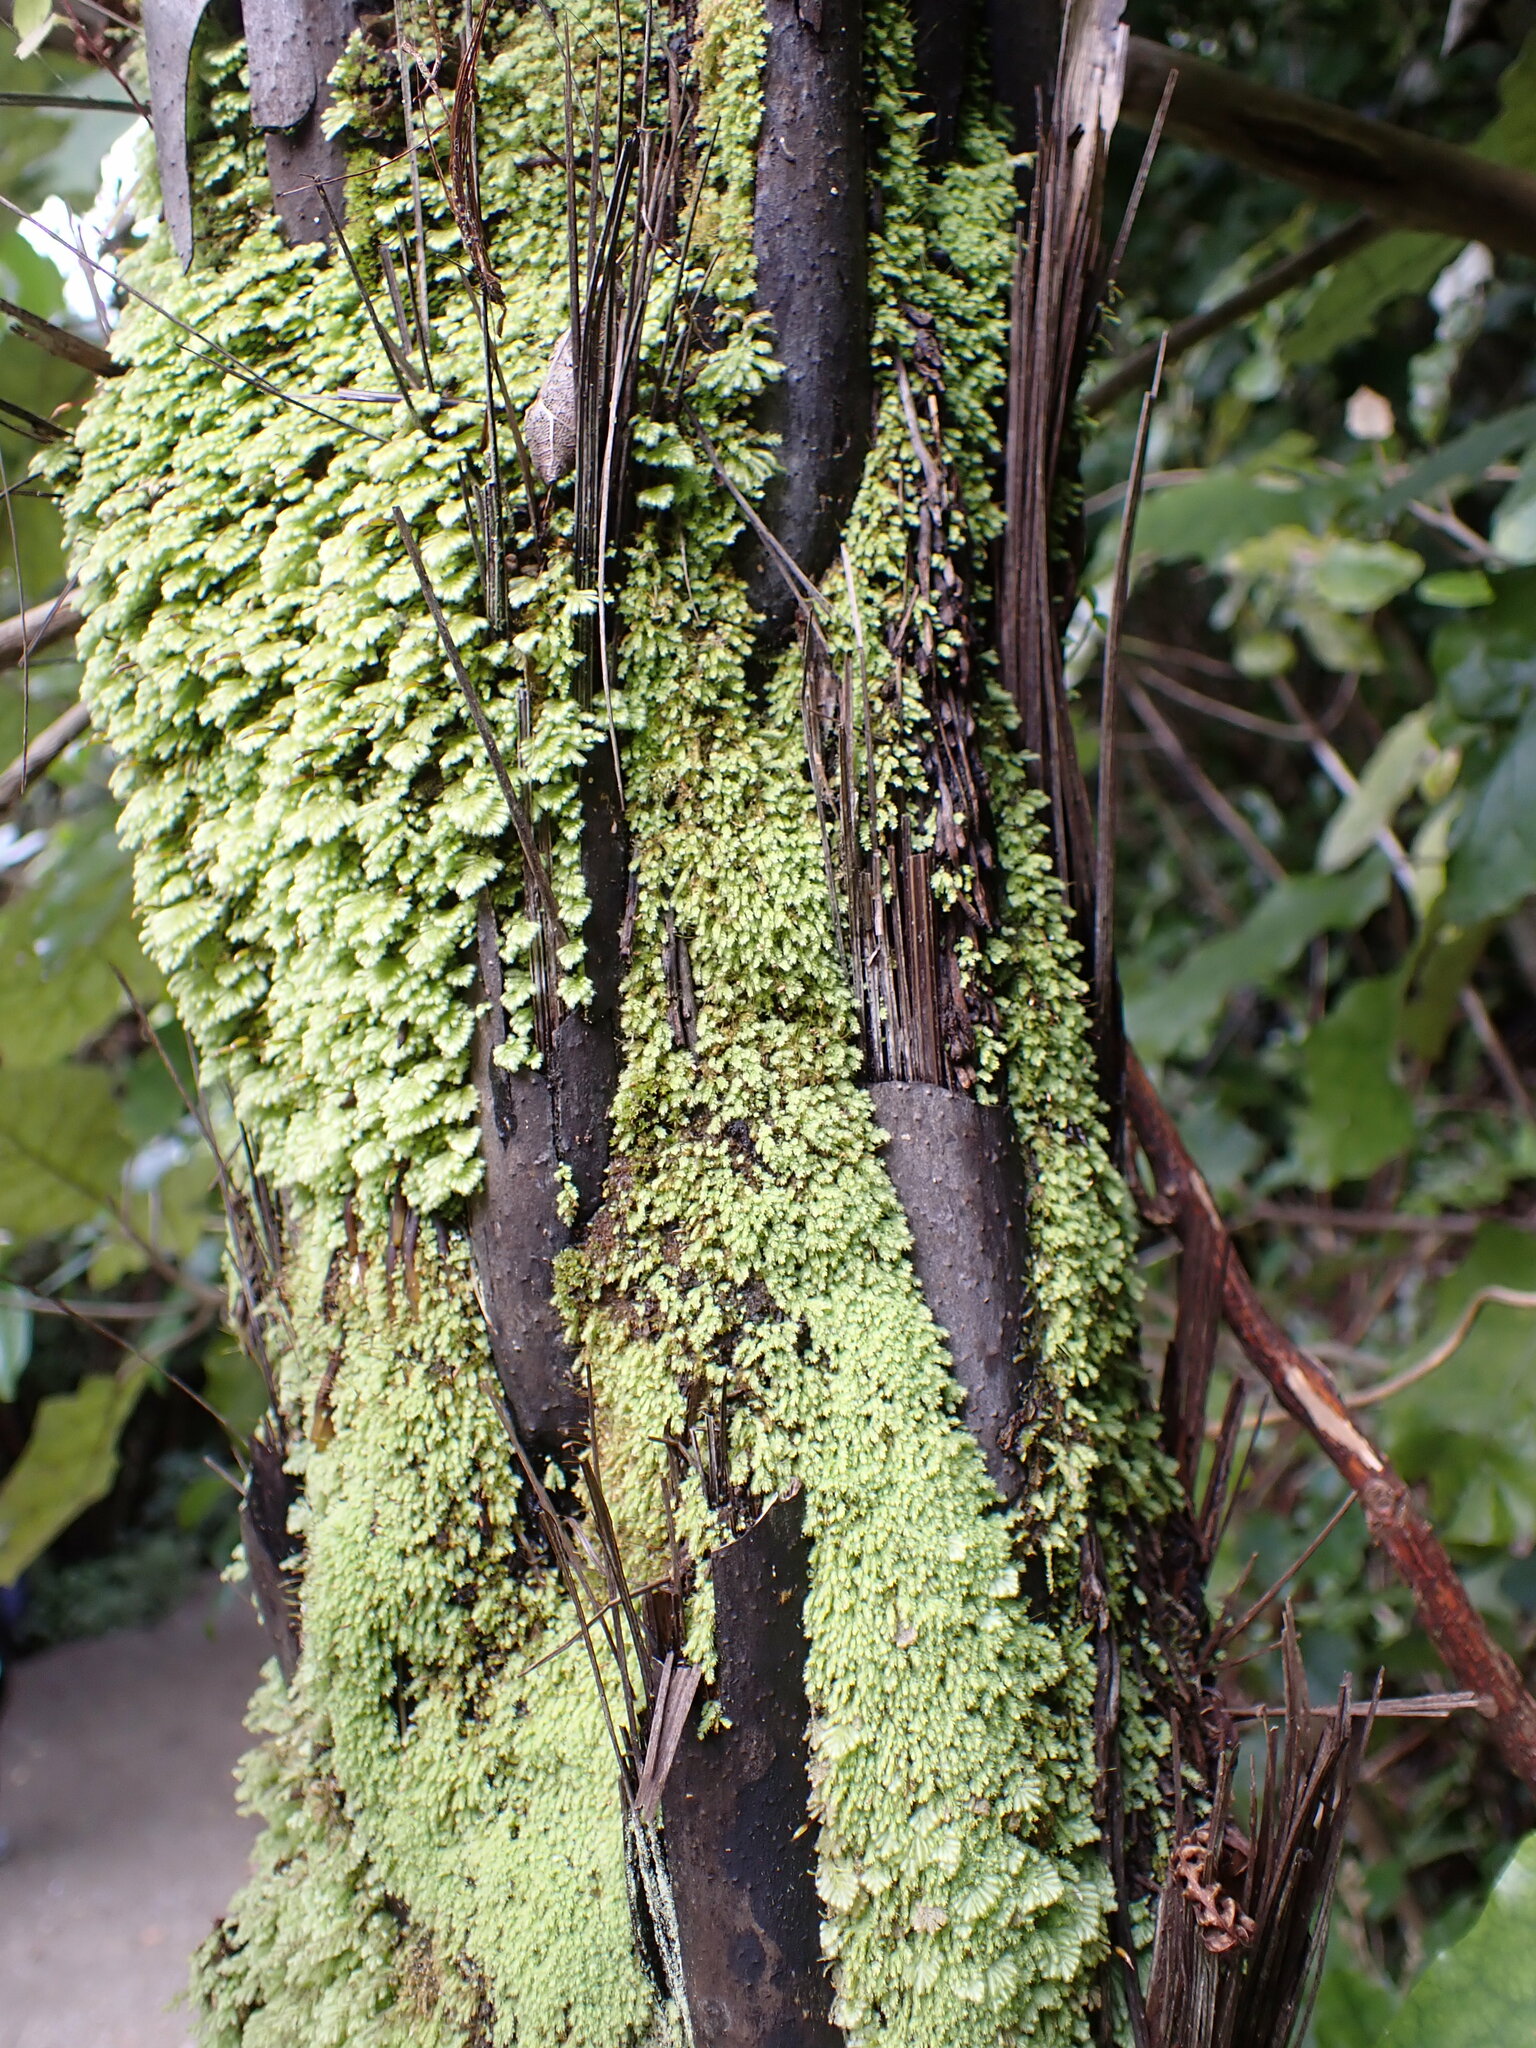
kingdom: Plantae
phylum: Tracheophyta
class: Polypodiopsida
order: Cyatheales
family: Cyatheaceae
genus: Cyathea
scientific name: Cyathea cunninghamii
